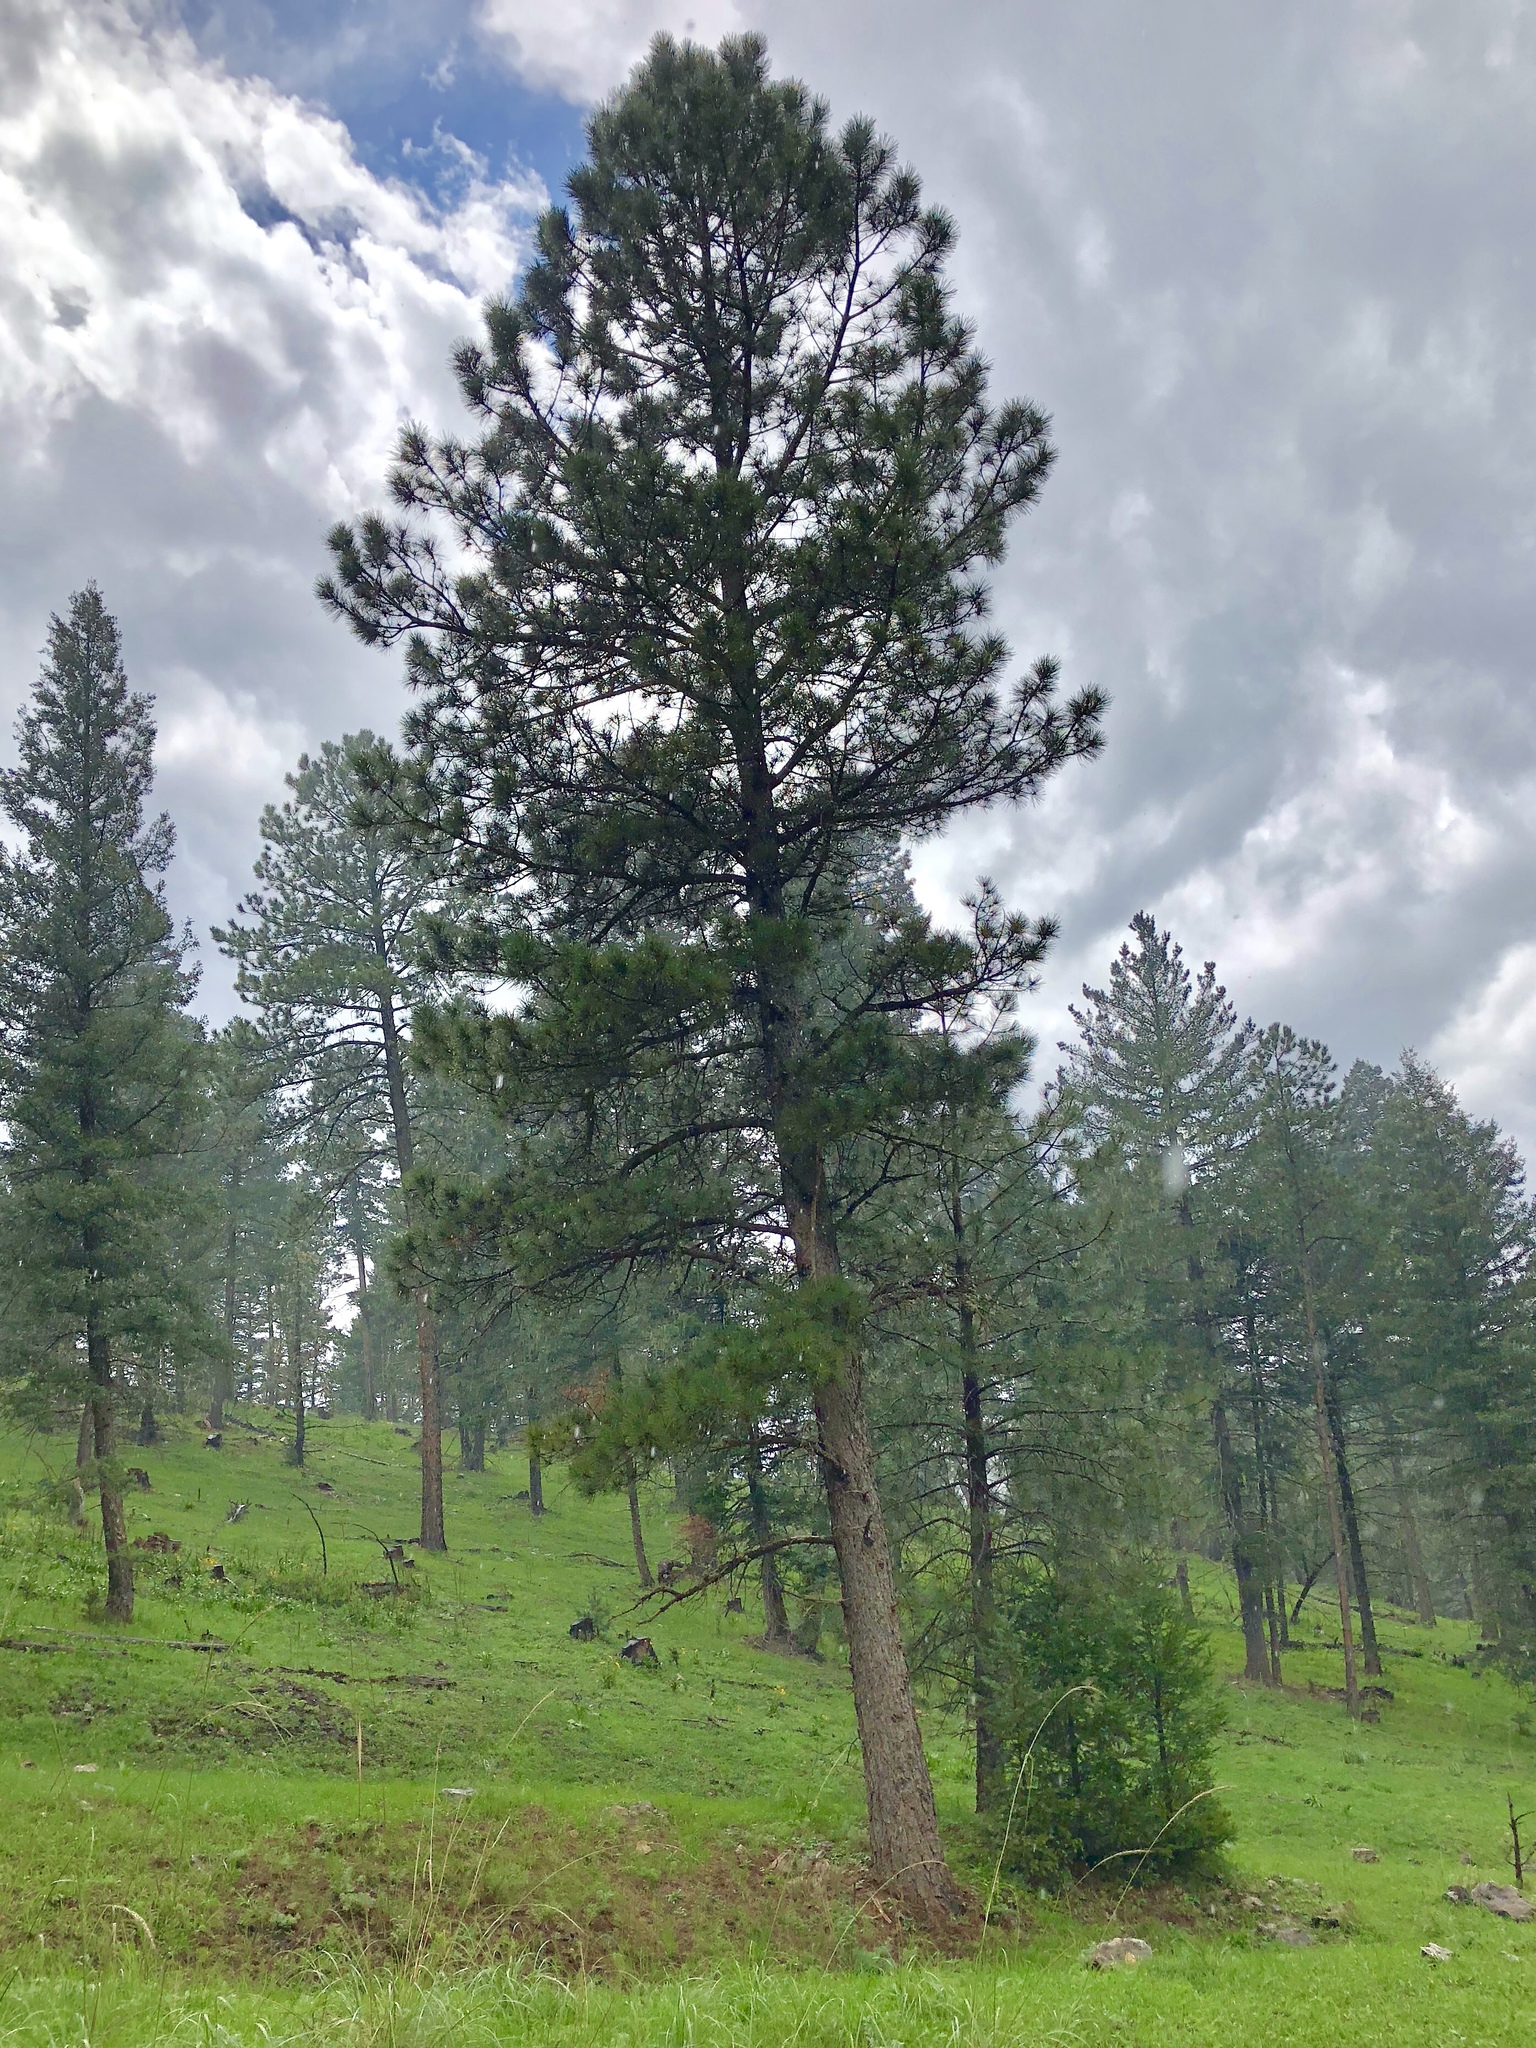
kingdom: Plantae
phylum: Tracheophyta
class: Pinopsida
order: Pinales
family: Pinaceae
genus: Pinus
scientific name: Pinus ponderosa
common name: Western yellow-pine
